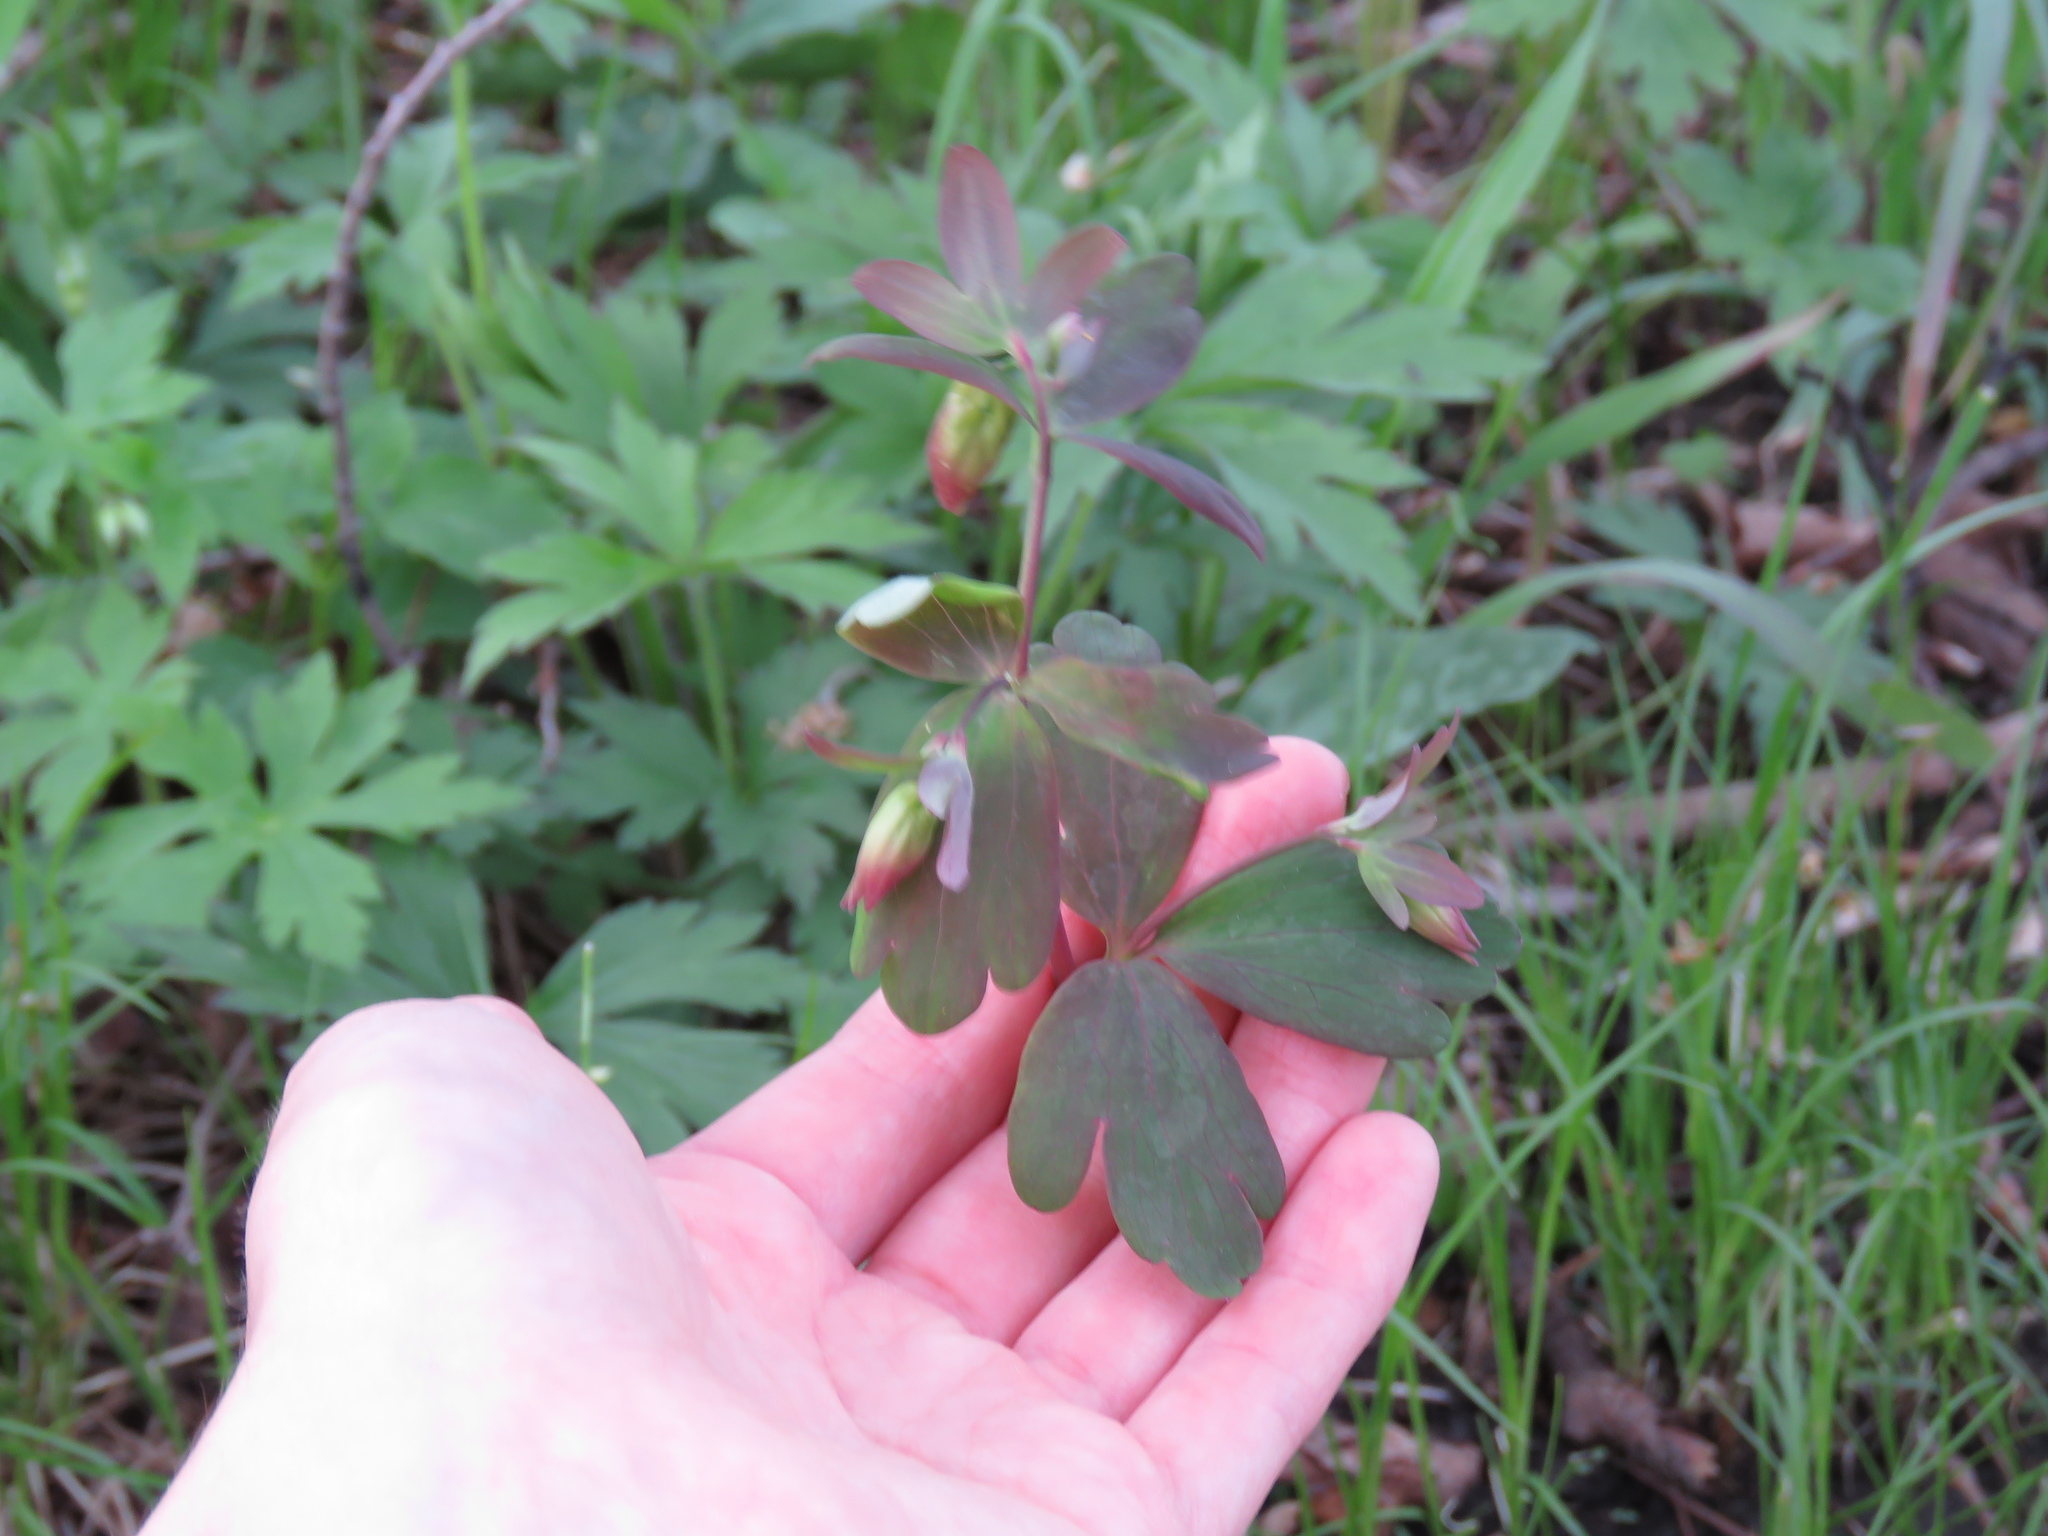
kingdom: Plantae
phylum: Tracheophyta
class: Magnoliopsida
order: Ranunculales
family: Ranunculaceae
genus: Aquilegia
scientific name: Aquilegia canadensis
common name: American columbine
